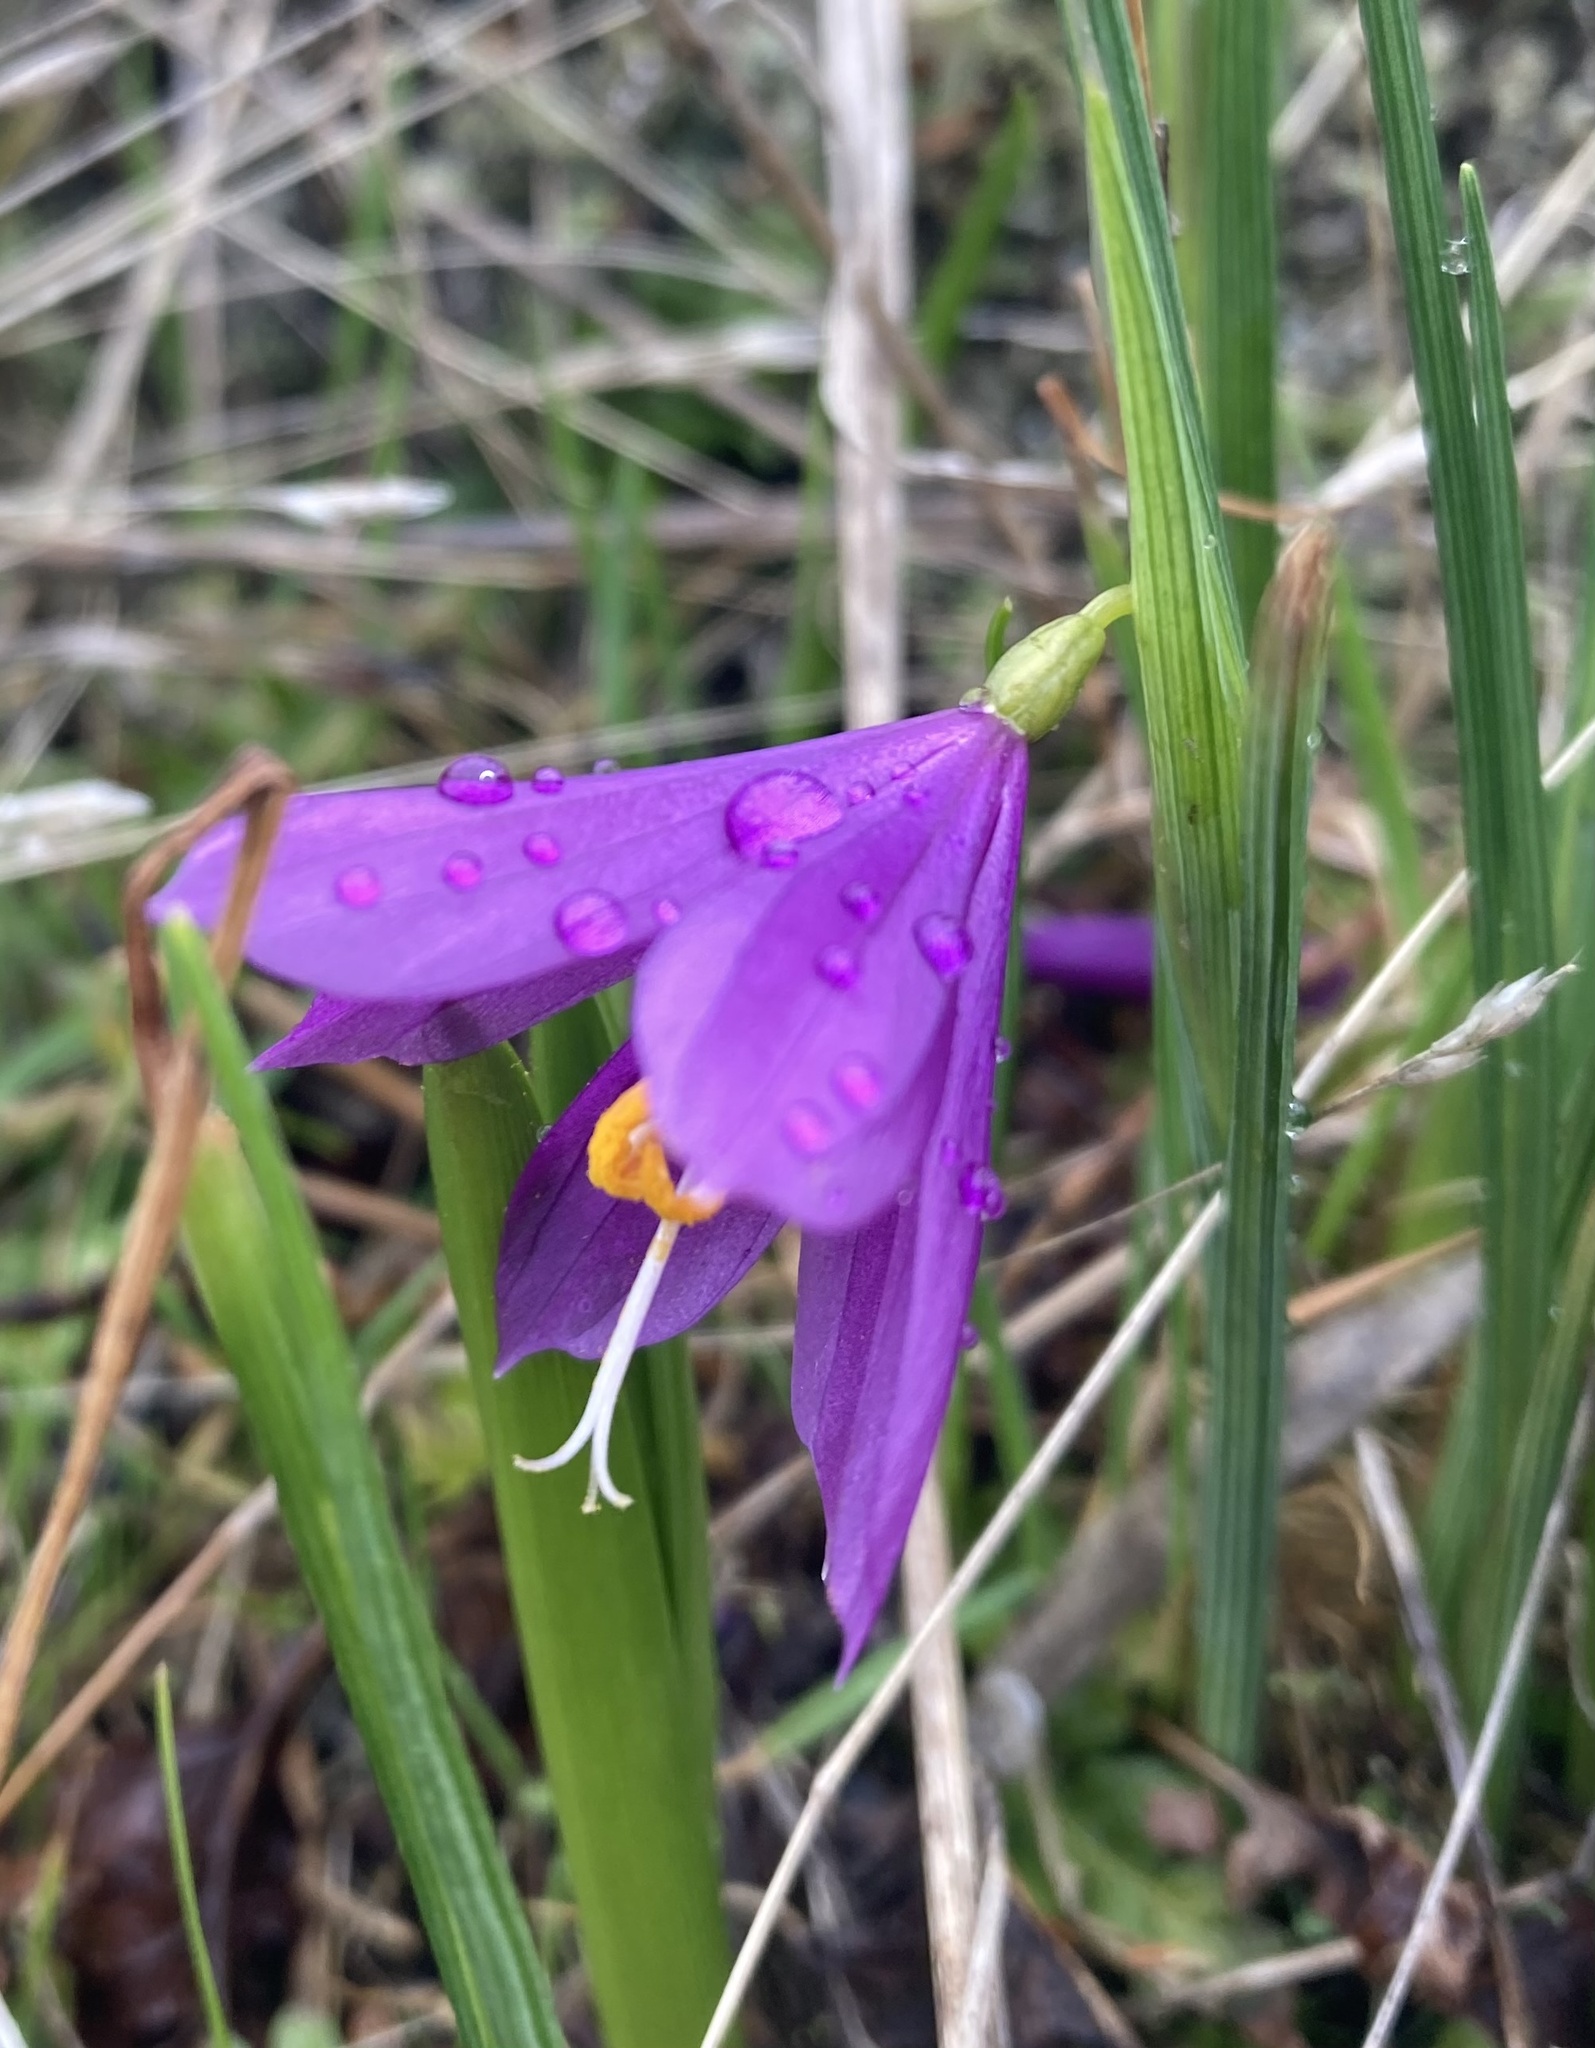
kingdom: Plantae
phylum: Tracheophyta
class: Liliopsida
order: Asparagales
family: Iridaceae
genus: Olsynium
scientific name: Olsynium douglasii
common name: Douglas' grasswidow
